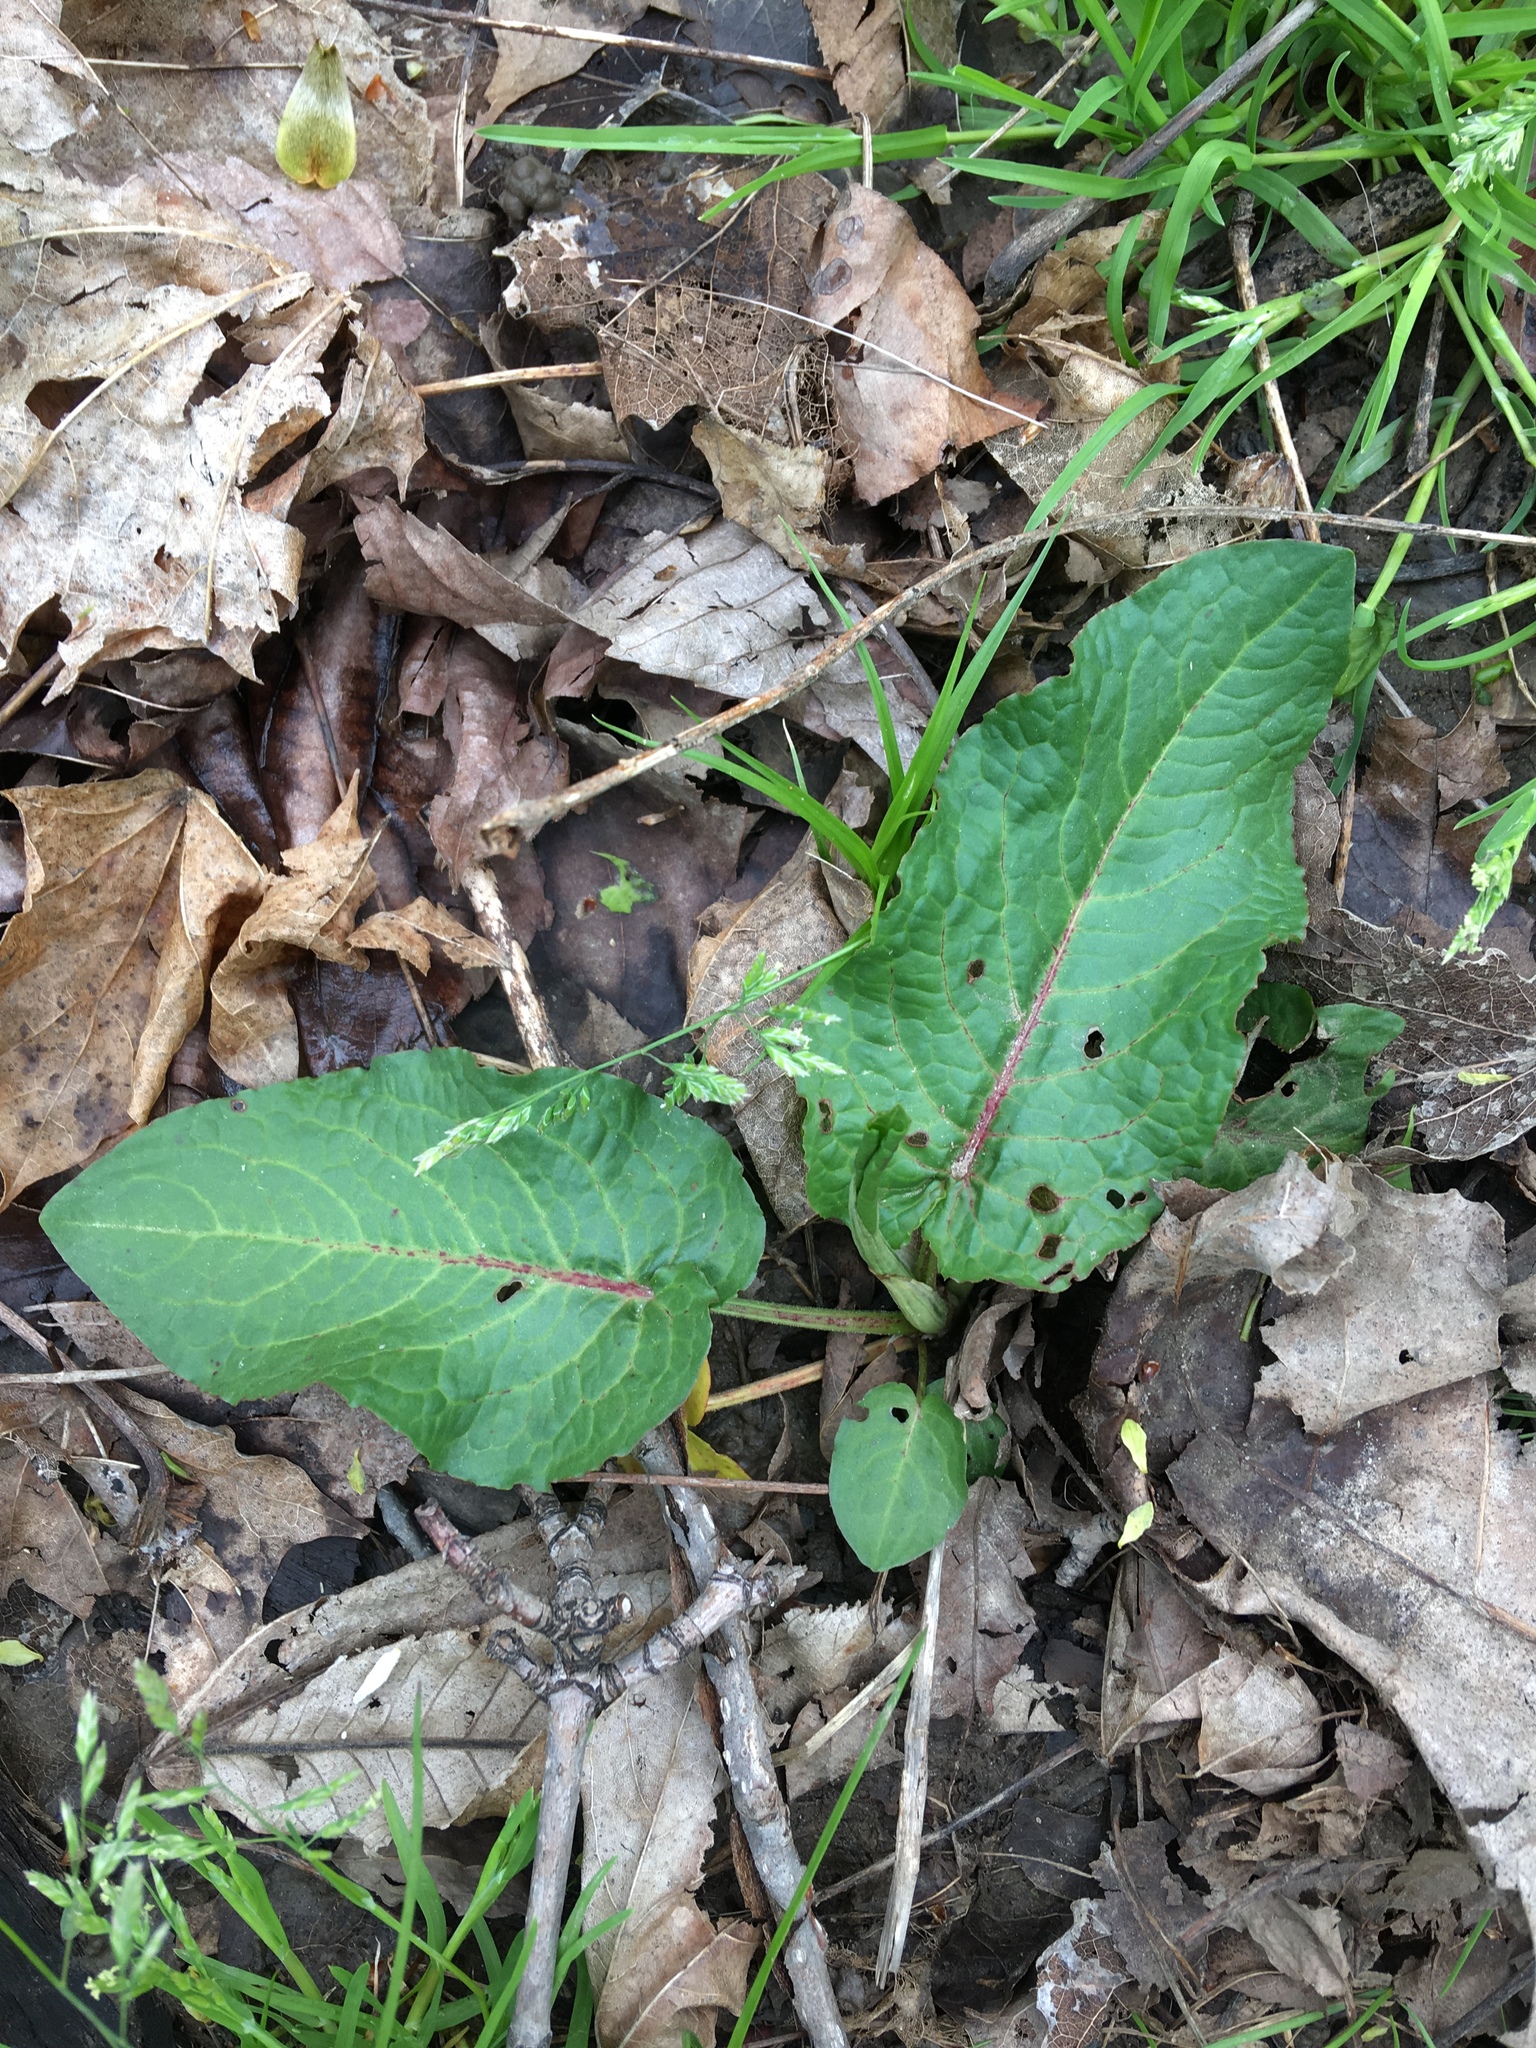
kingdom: Plantae
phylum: Tracheophyta
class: Magnoliopsida
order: Caryophyllales
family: Polygonaceae
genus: Rumex
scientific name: Rumex obtusifolius
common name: Bitter dock
